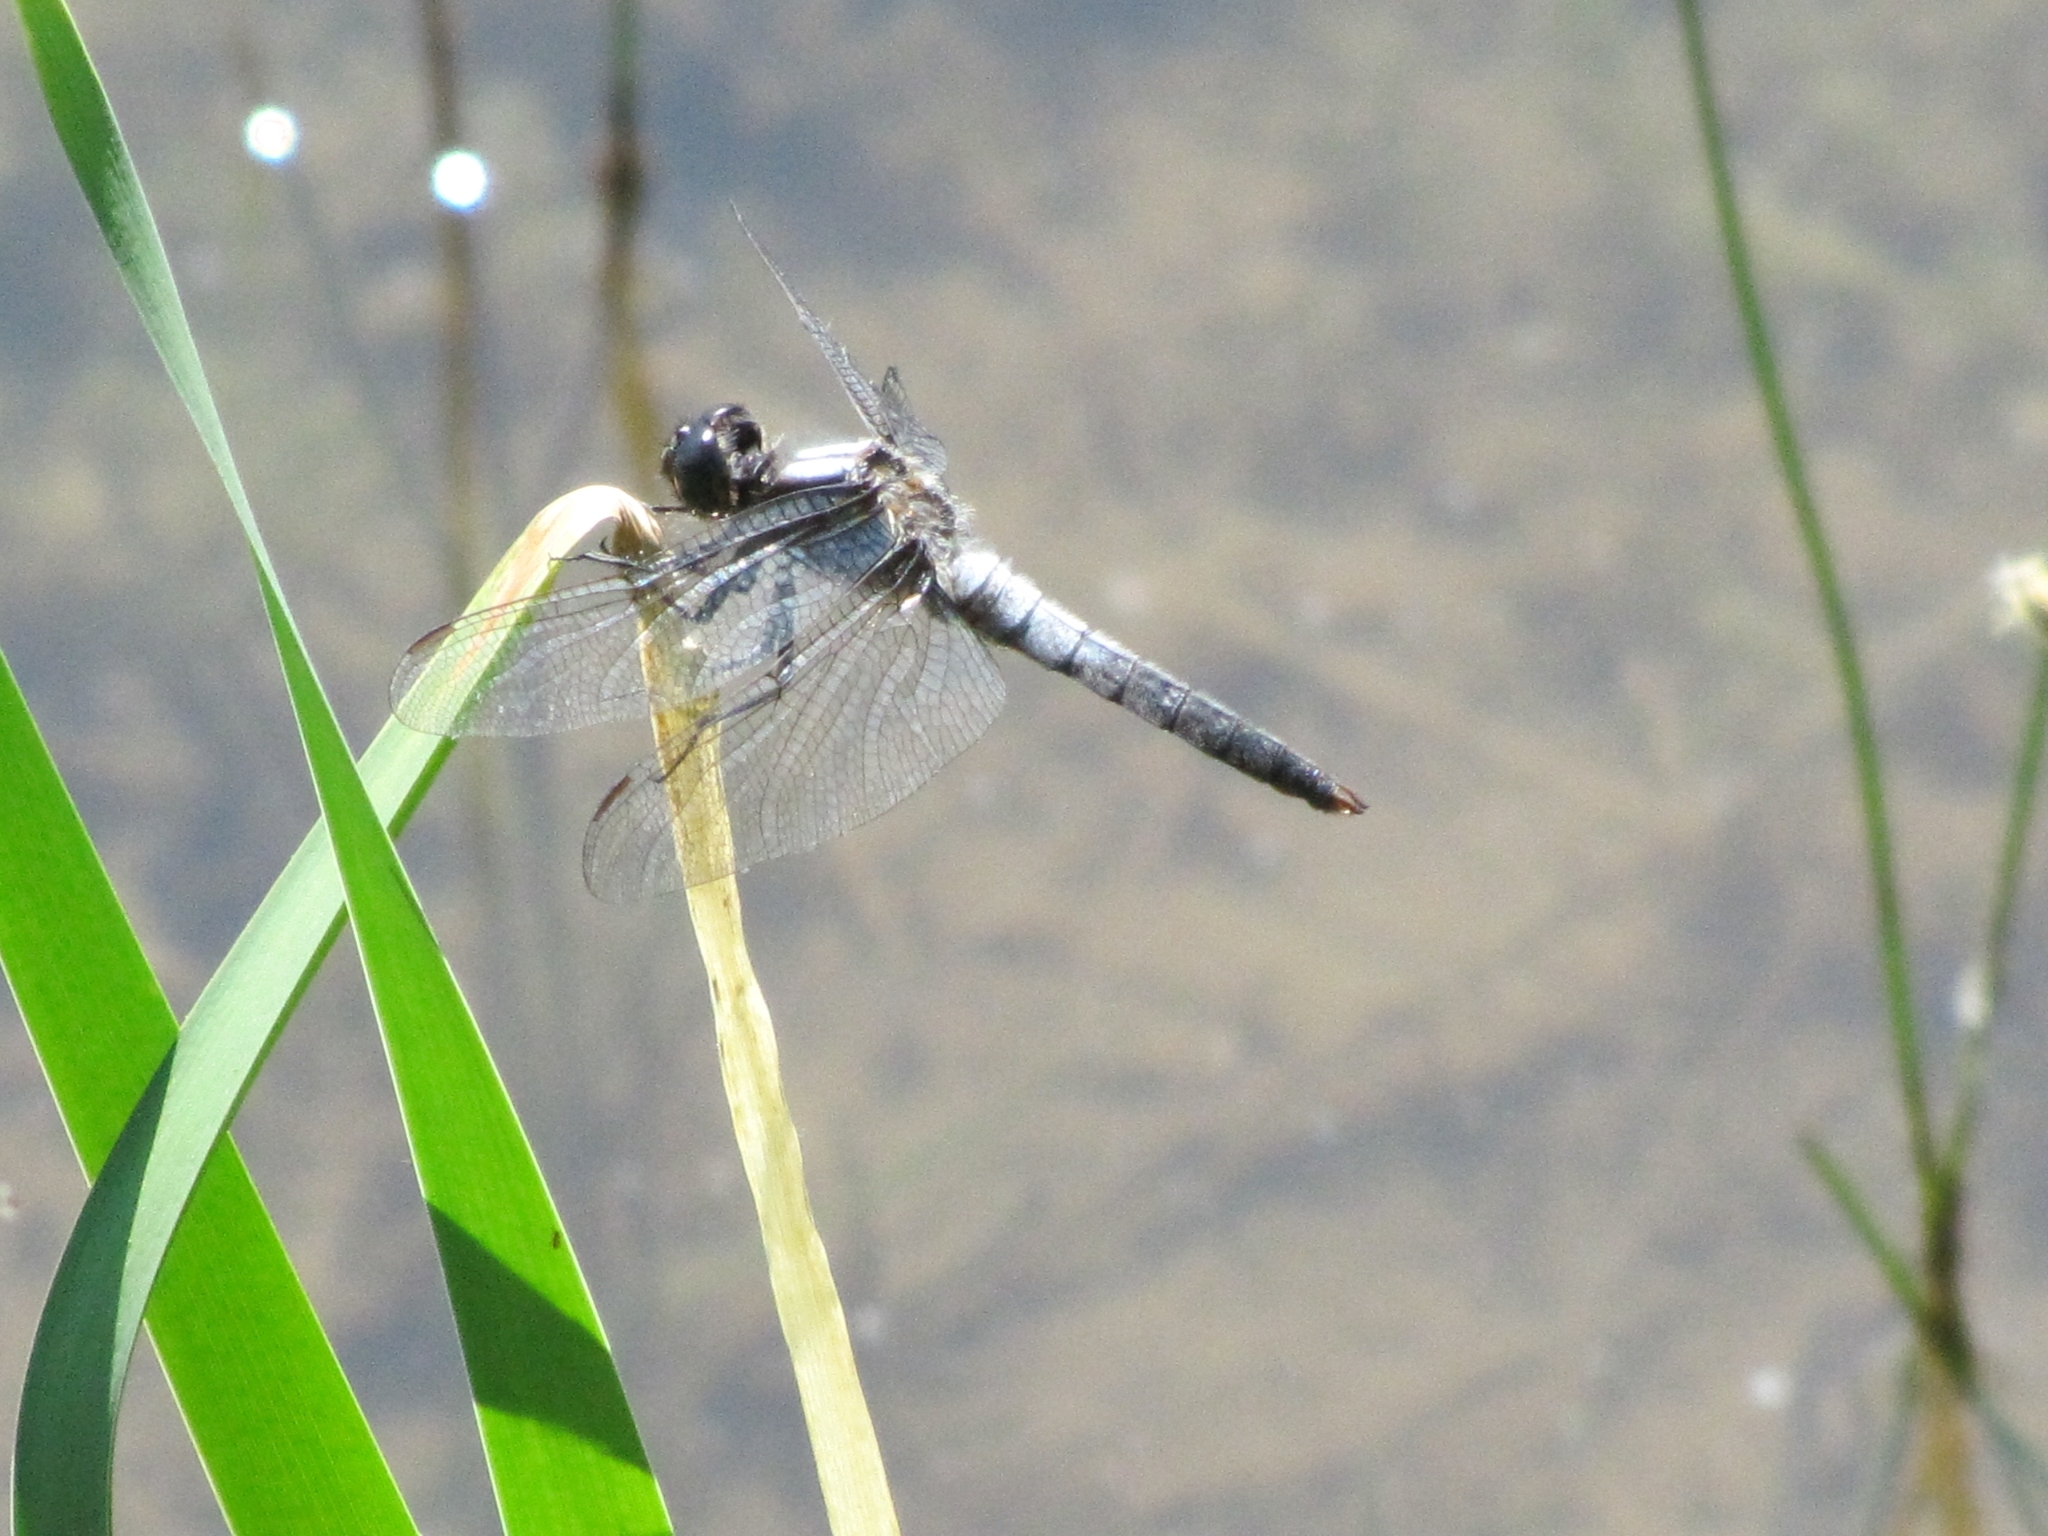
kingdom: Animalia
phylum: Arthropoda
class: Insecta
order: Odonata
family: Libellulidae
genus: Ladona
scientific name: Ladona julia
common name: Chalk-fronted corporal
